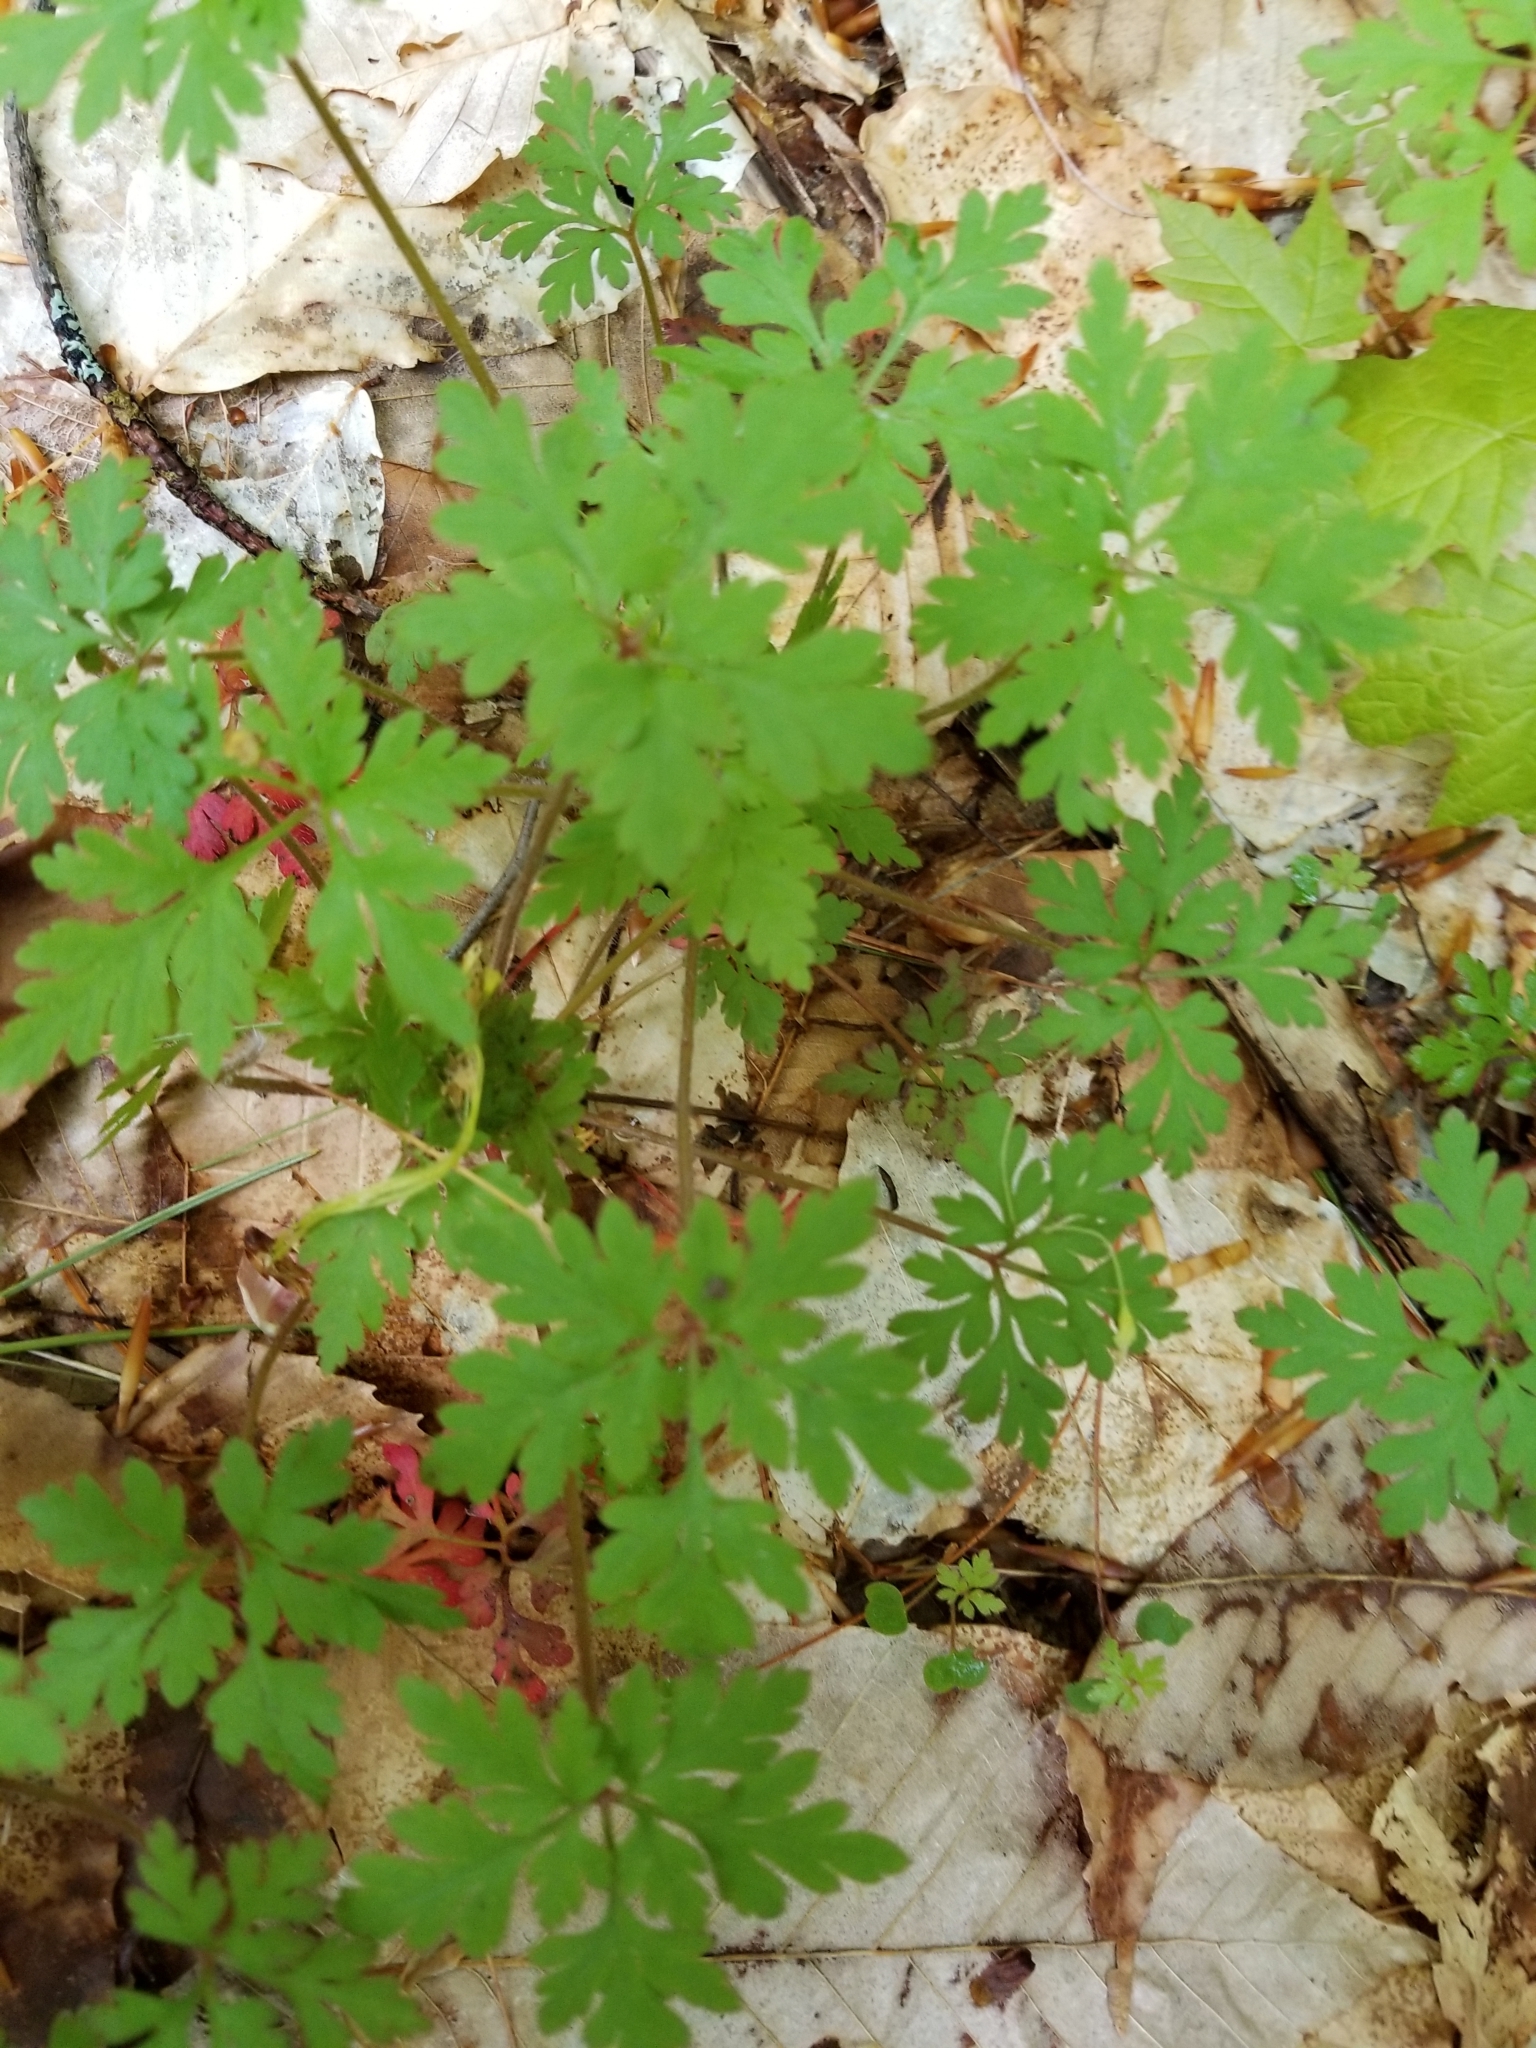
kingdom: Plantae
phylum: Tracheophyta
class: Magnoliopsida
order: Geraniales
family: Geraniaceae
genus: Geranium
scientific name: Geranium robertianum
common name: Herb-robert
